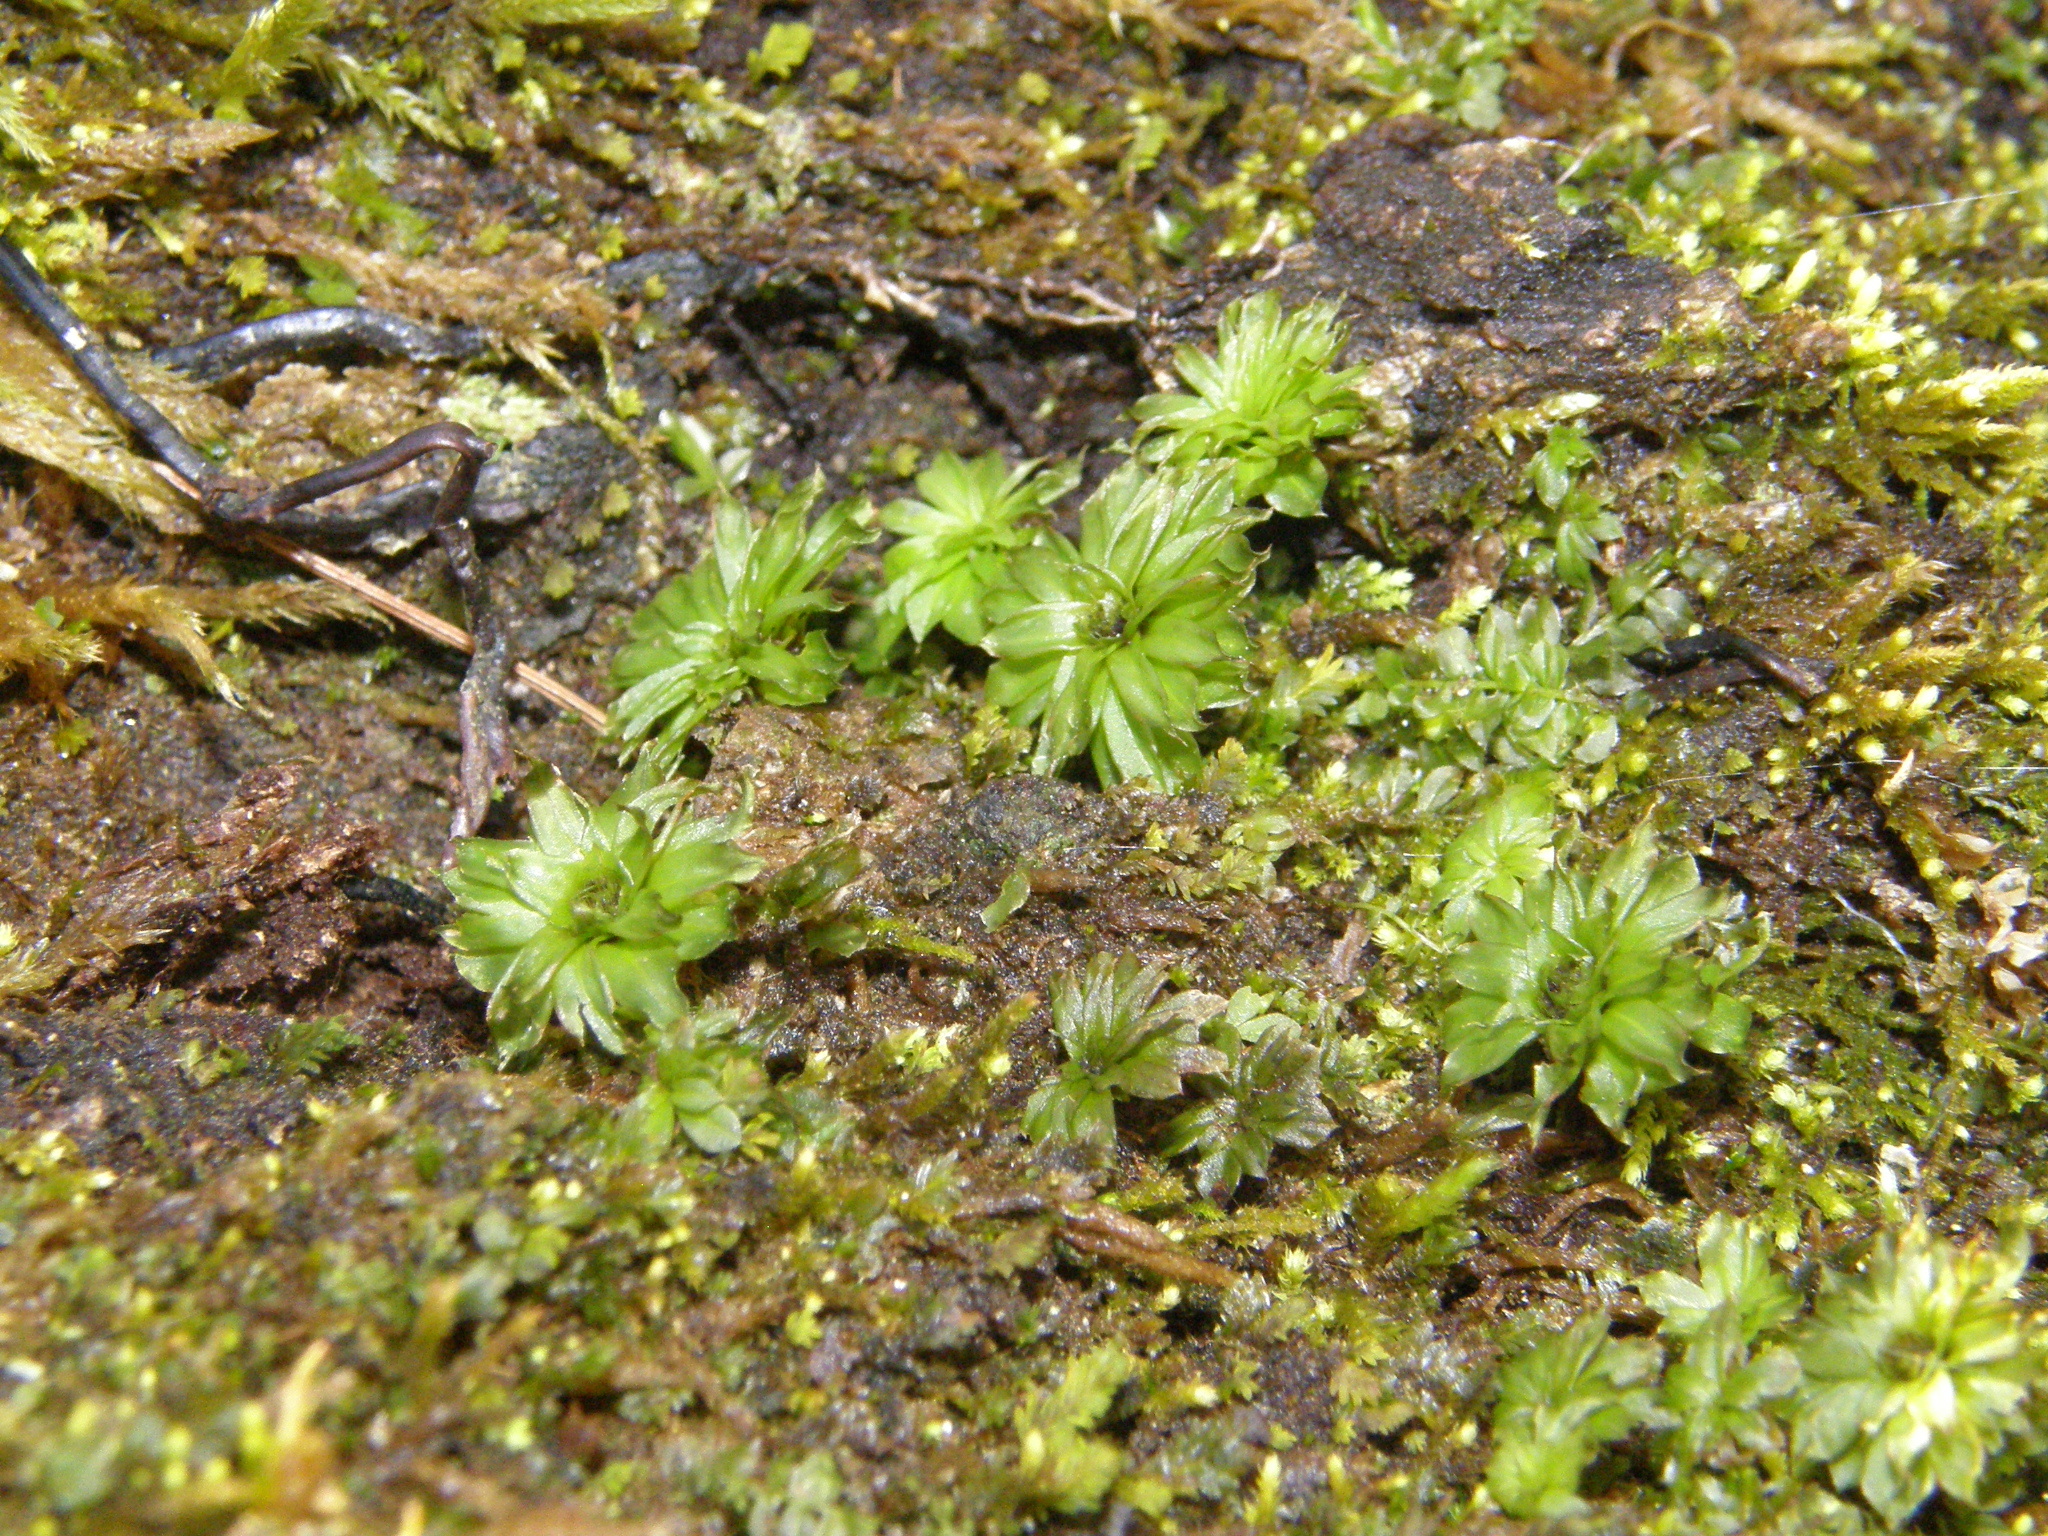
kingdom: Plantae
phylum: Bryophyta
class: Bryopsida
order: Bryales
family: Bryaceae
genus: Rhodobryum
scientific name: Rhodobryum ontariense
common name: Ontario rhodobryum moss
